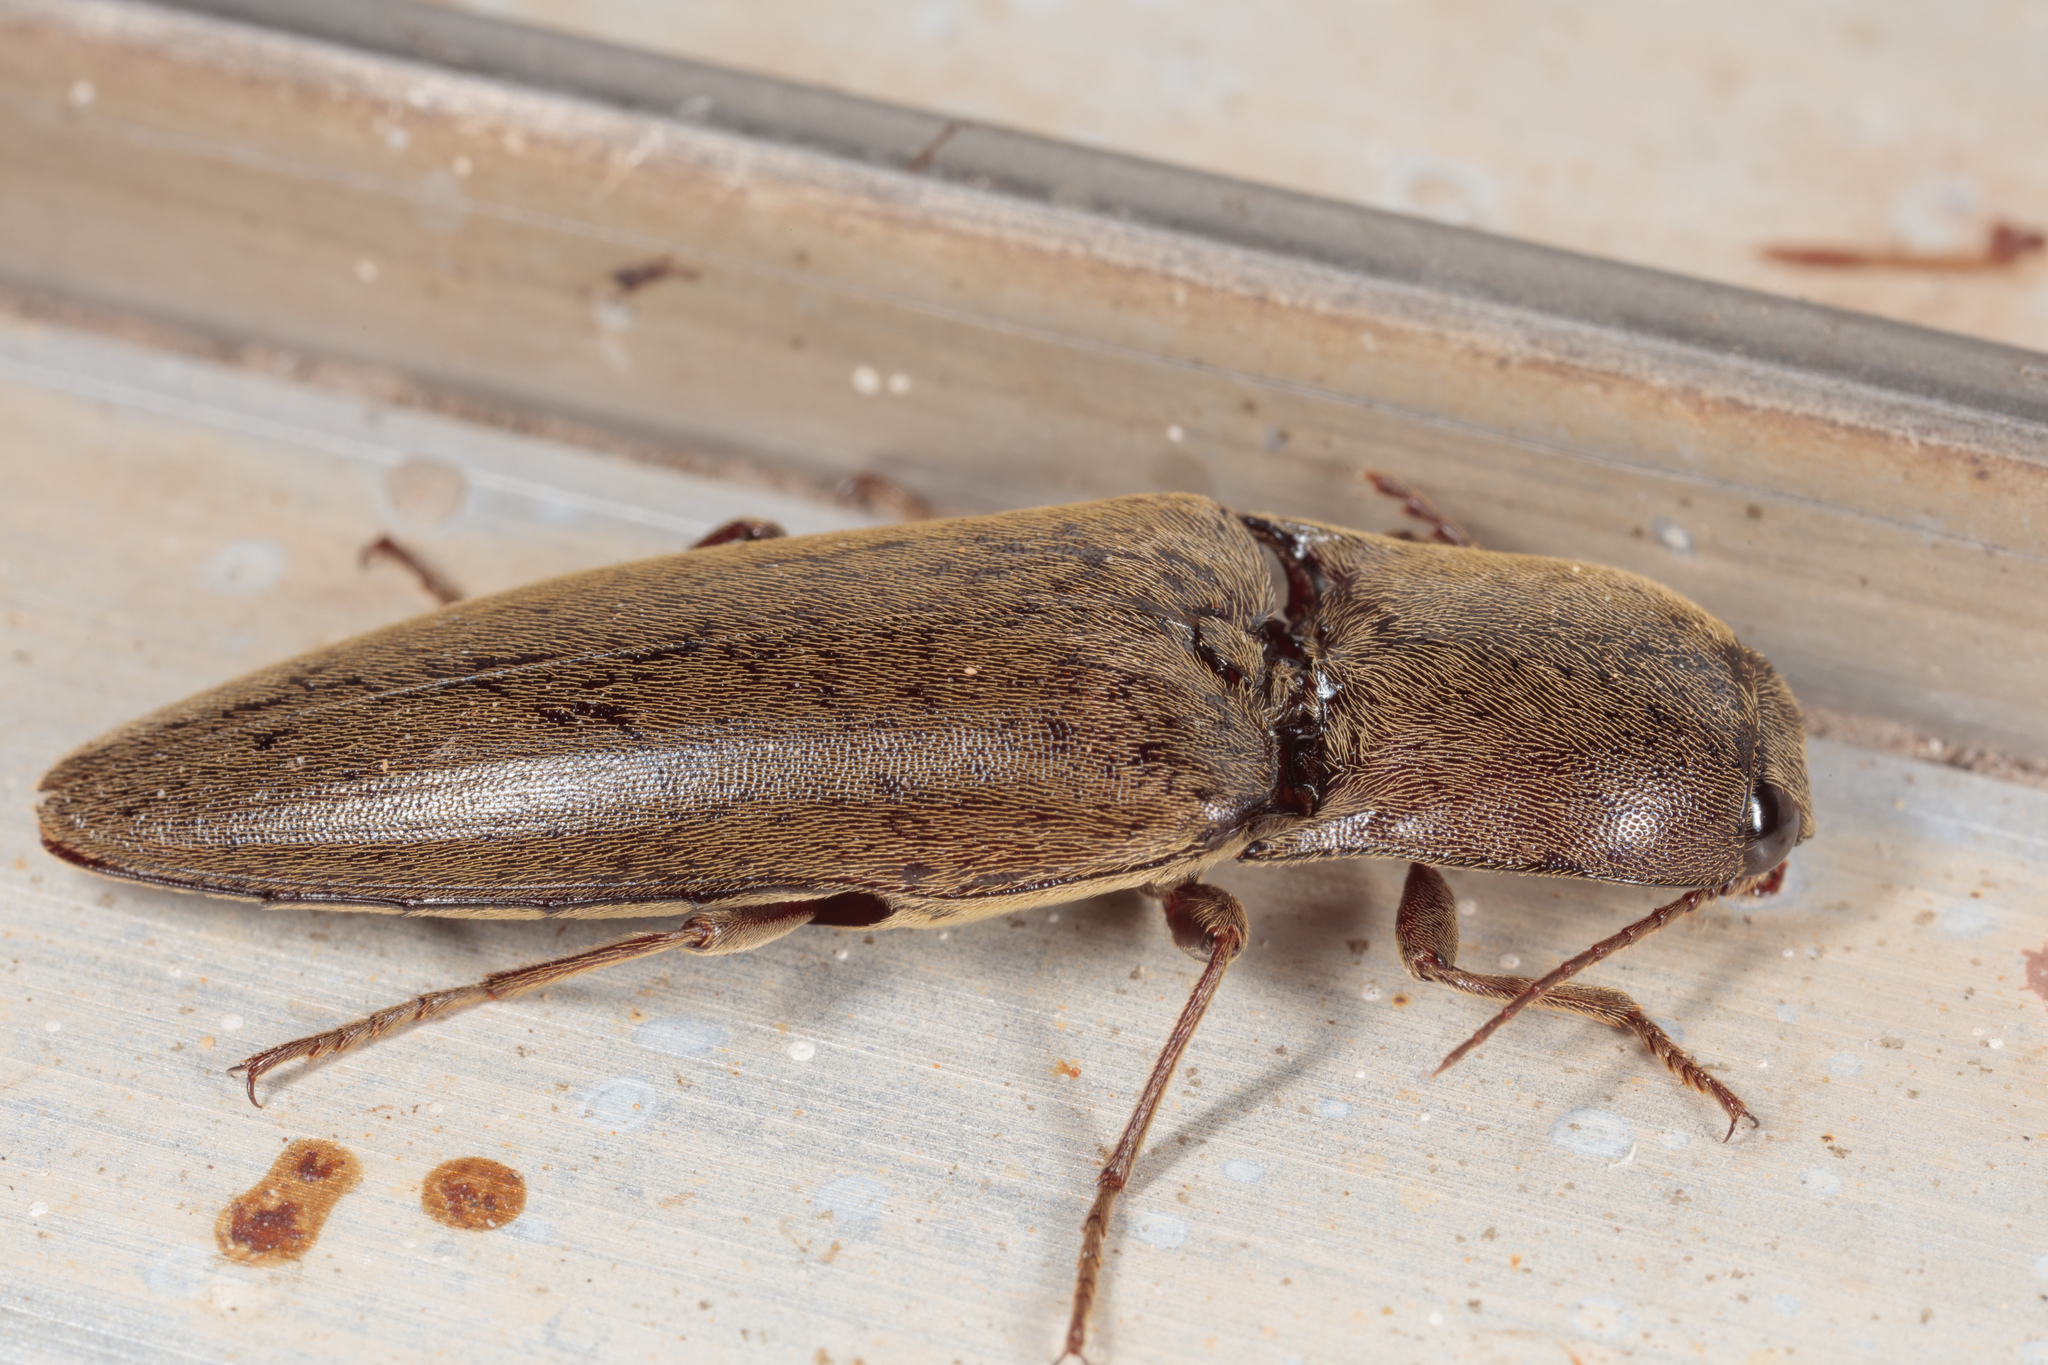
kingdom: Animalia
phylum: Arthropoda
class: Insecta
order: Coleoptera
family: Elateridae
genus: Orthostethus
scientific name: Orthostethus infuscatus
